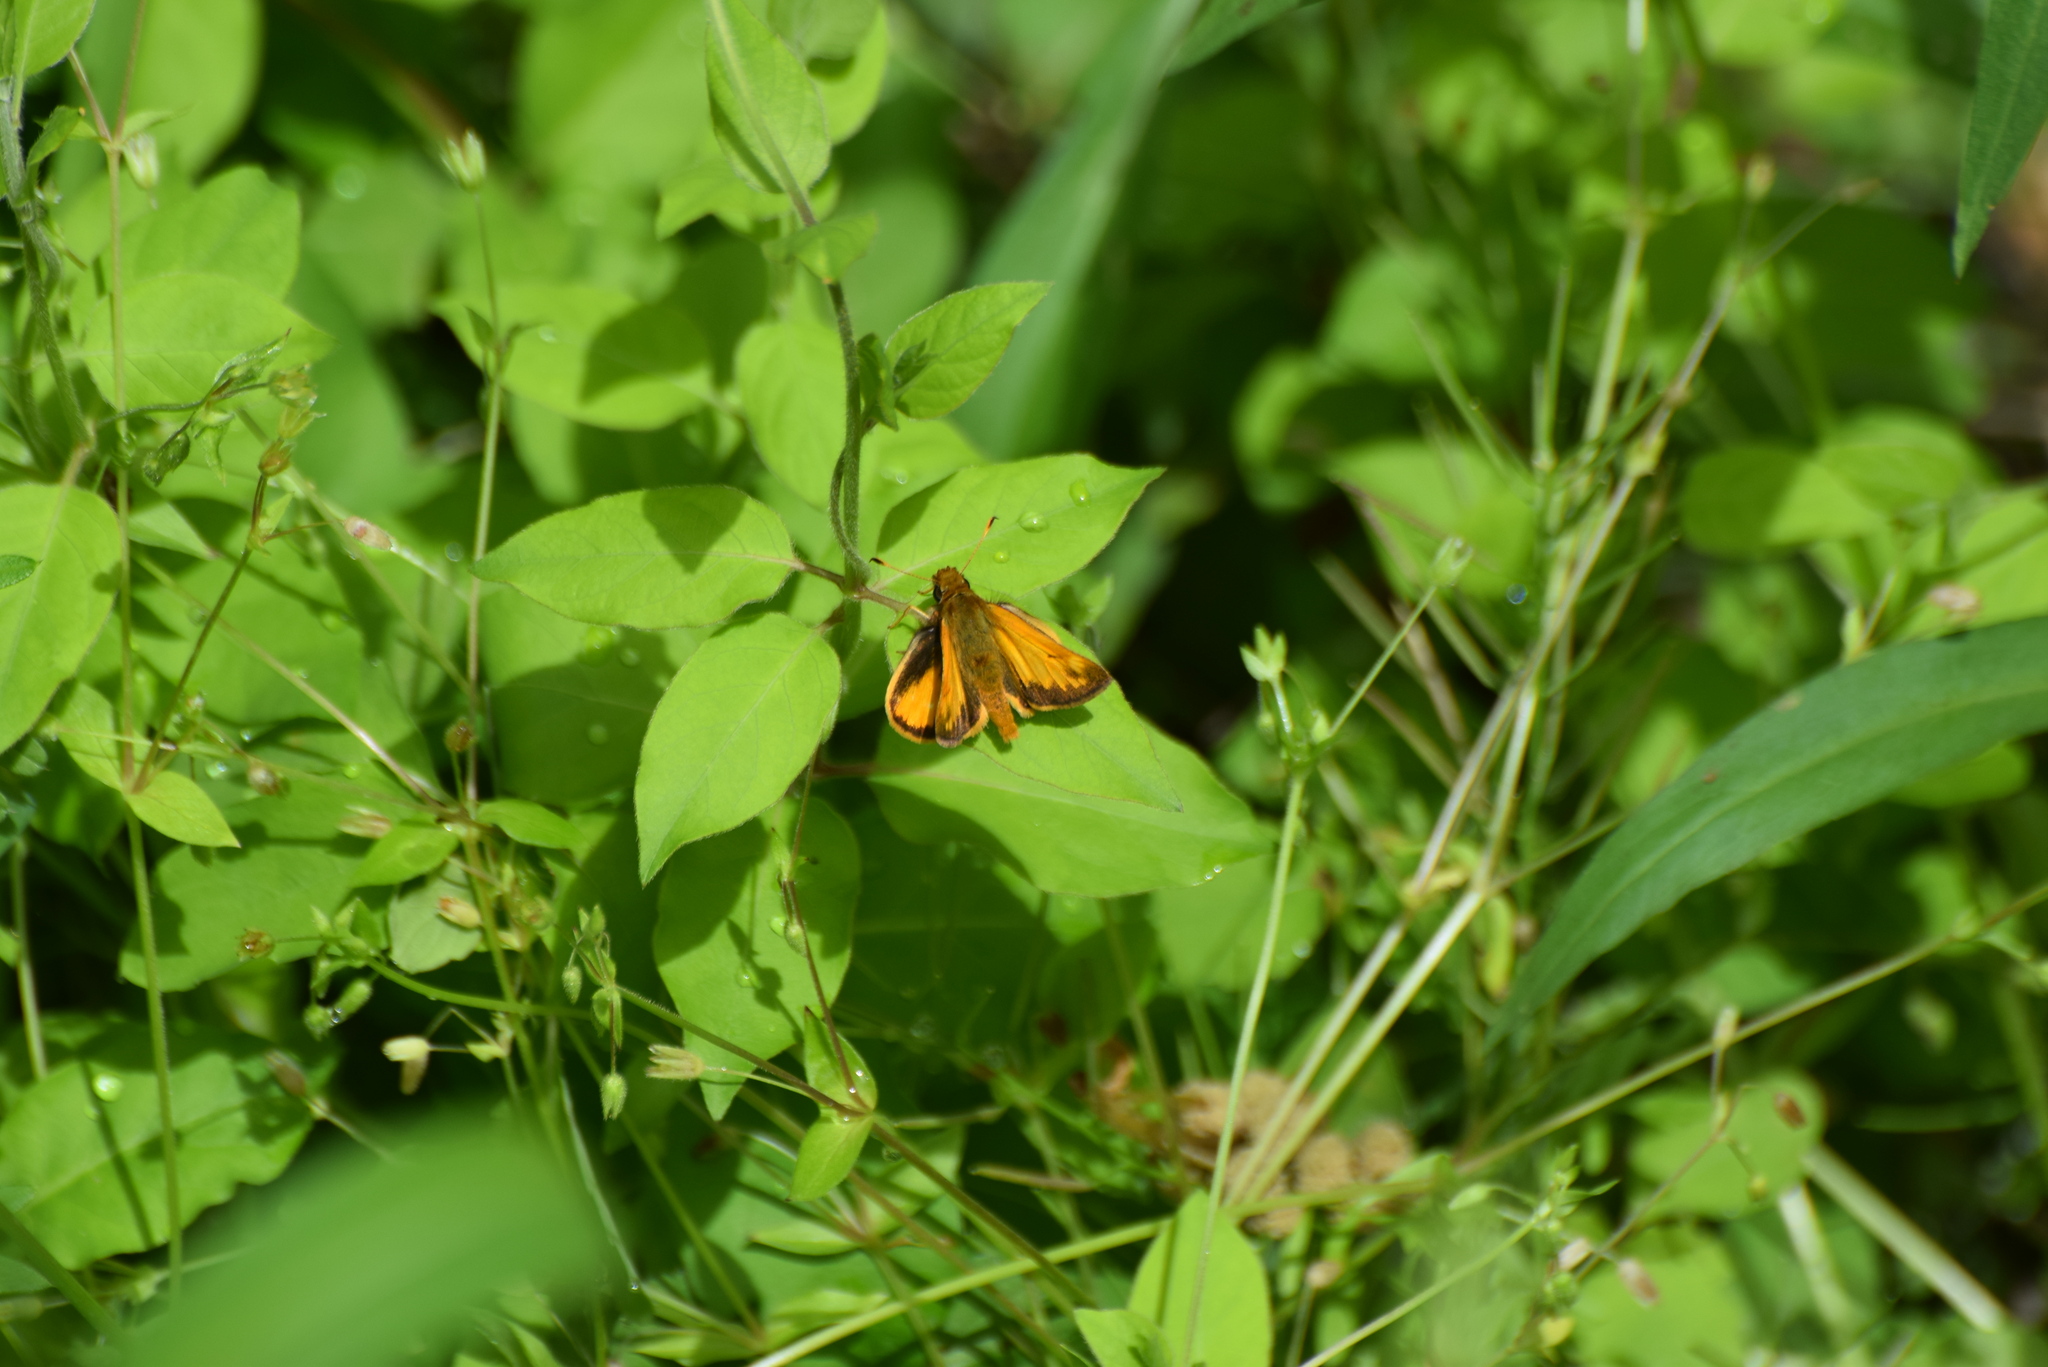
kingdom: Animalia
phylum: Arthropoda
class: Insecta
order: Lepidoptera
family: Hesperiidae
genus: Lon
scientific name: Lon zabulon
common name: Zabulon skipper
